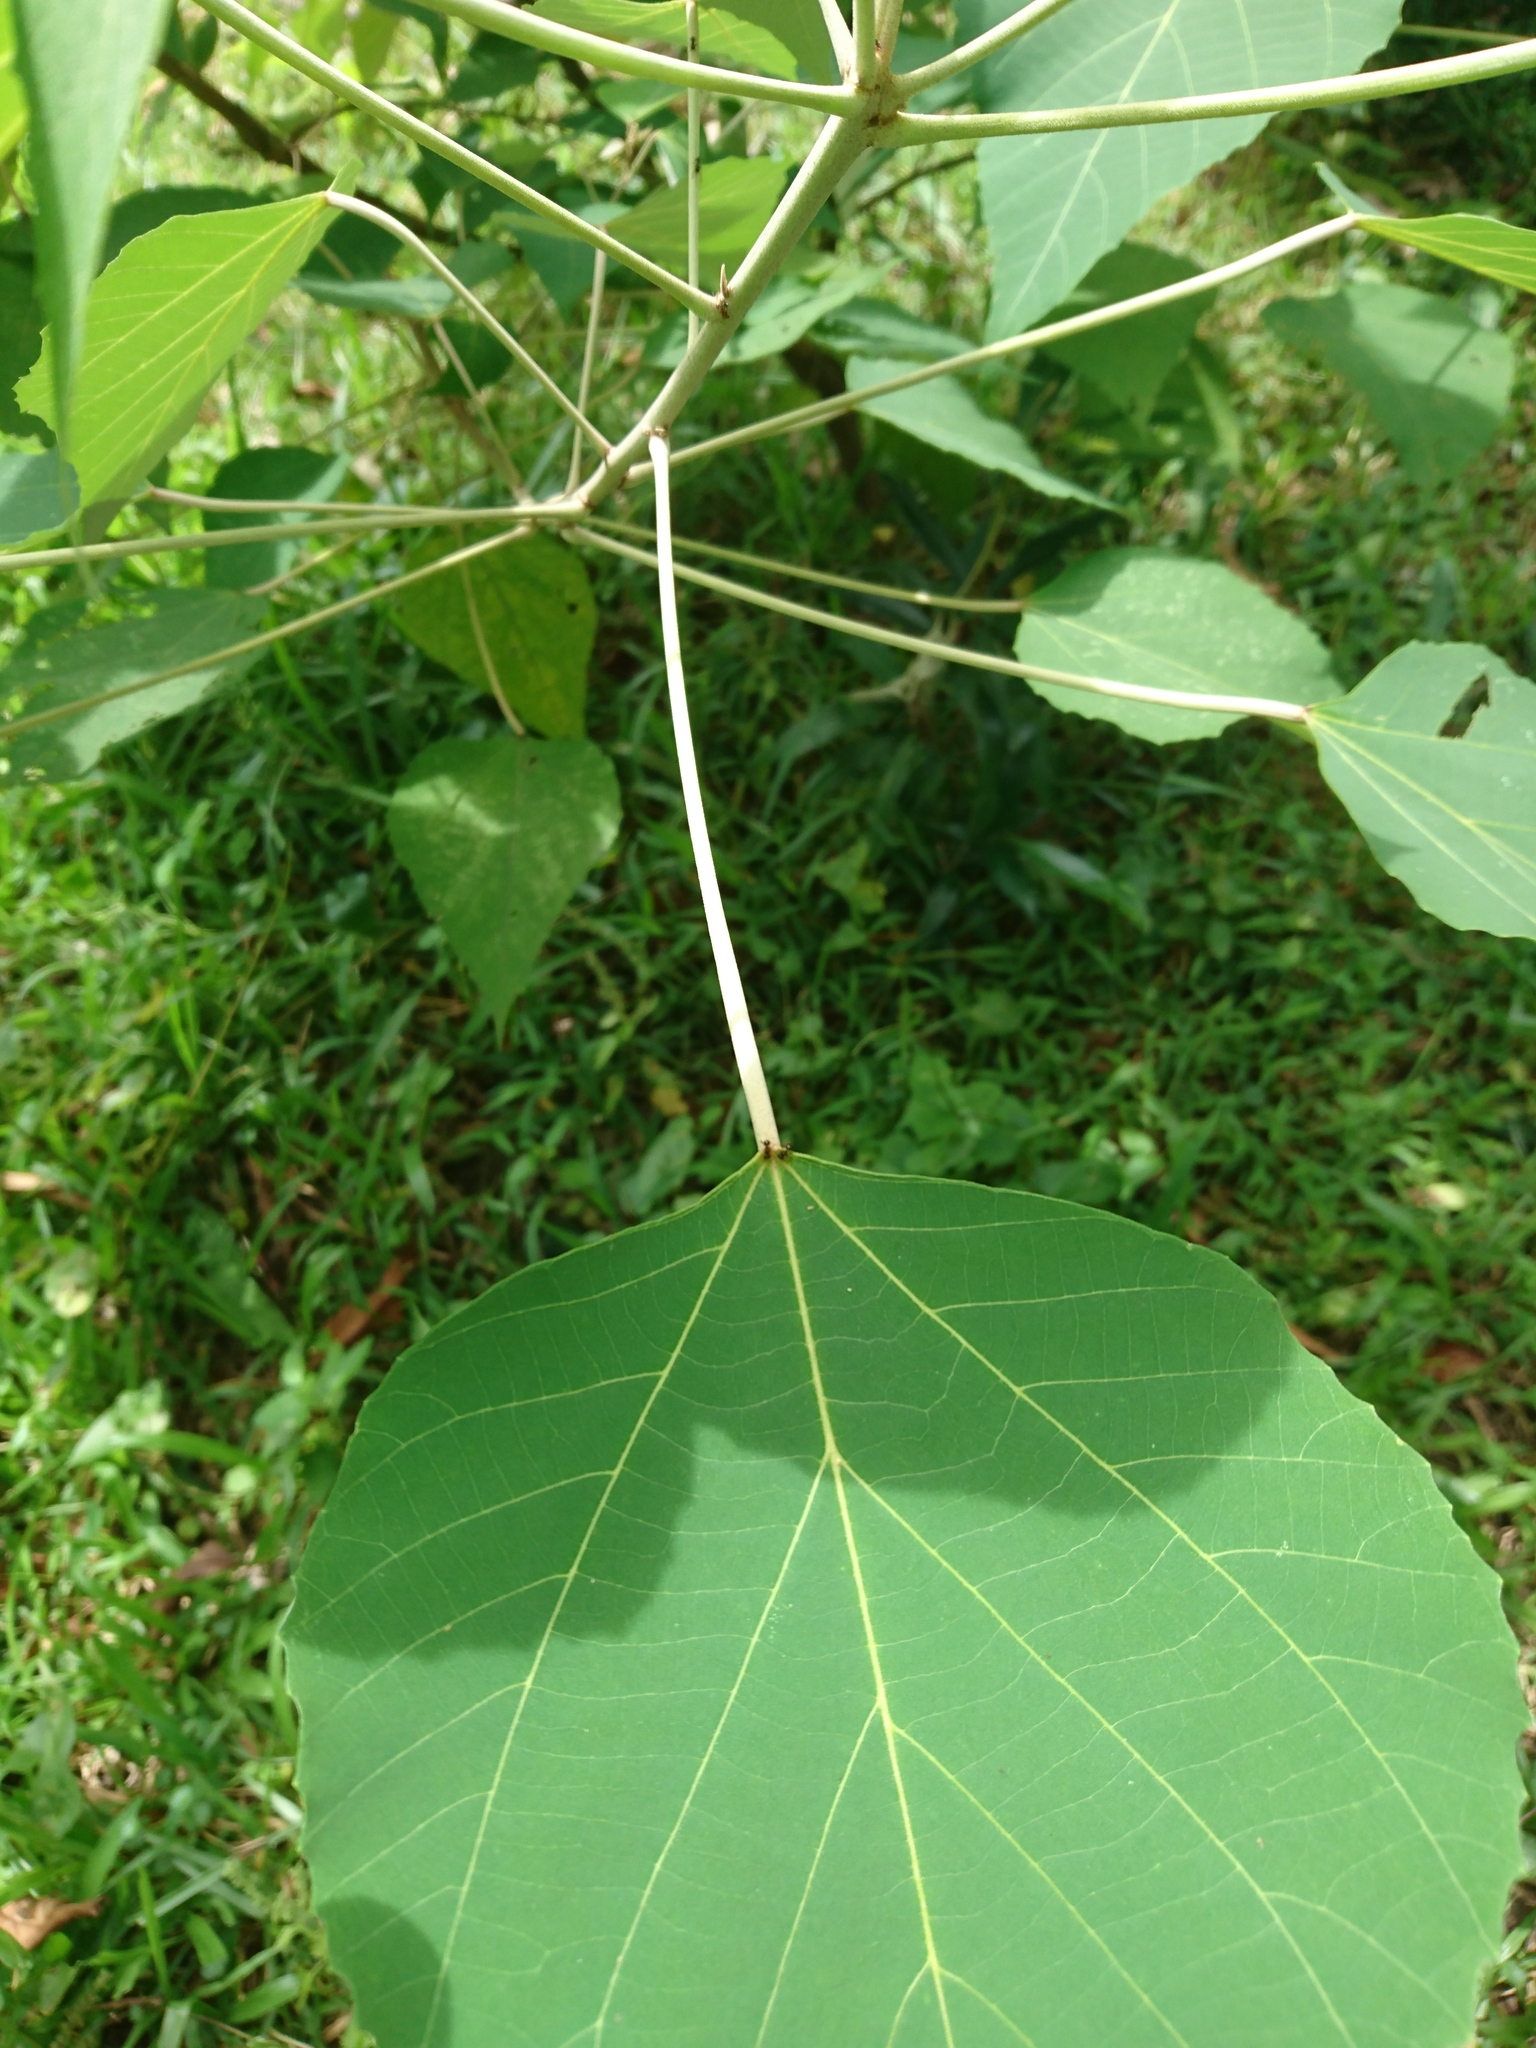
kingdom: Plantae
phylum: Tracheophyta
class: Magnoliopsida
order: Malpighiales
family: Euphorbiaceae
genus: Mallotus
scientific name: Mallotus paniculatus
